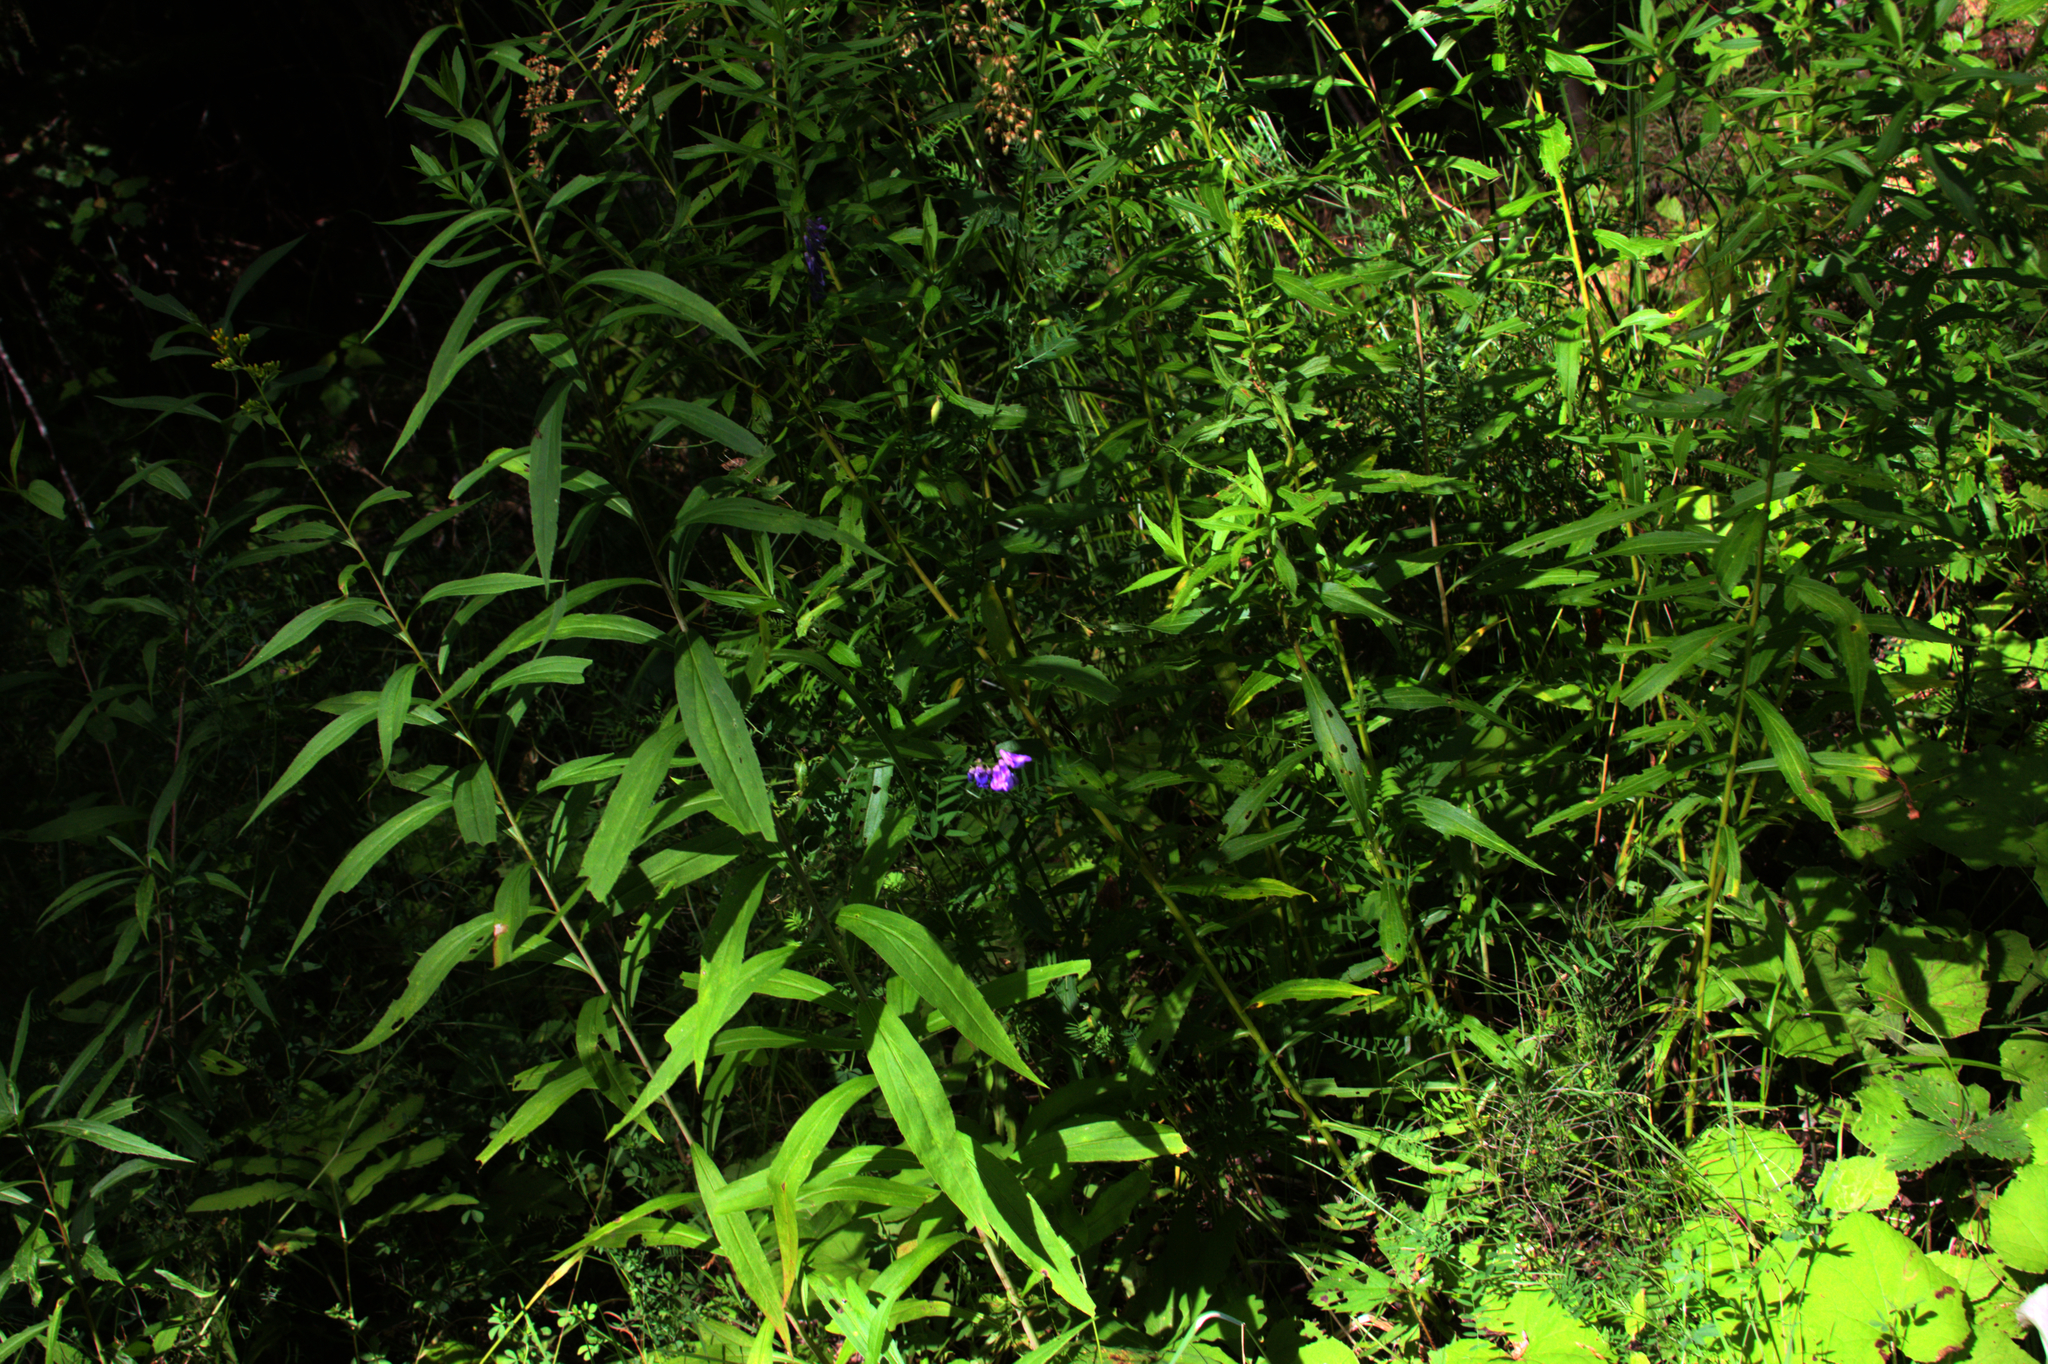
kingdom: Plantae
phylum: Tracheophyta
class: Magnoliopsida
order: Fabales
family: Fabaceae
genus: Vicia
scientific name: Vicia cracca
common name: Bird vetch
